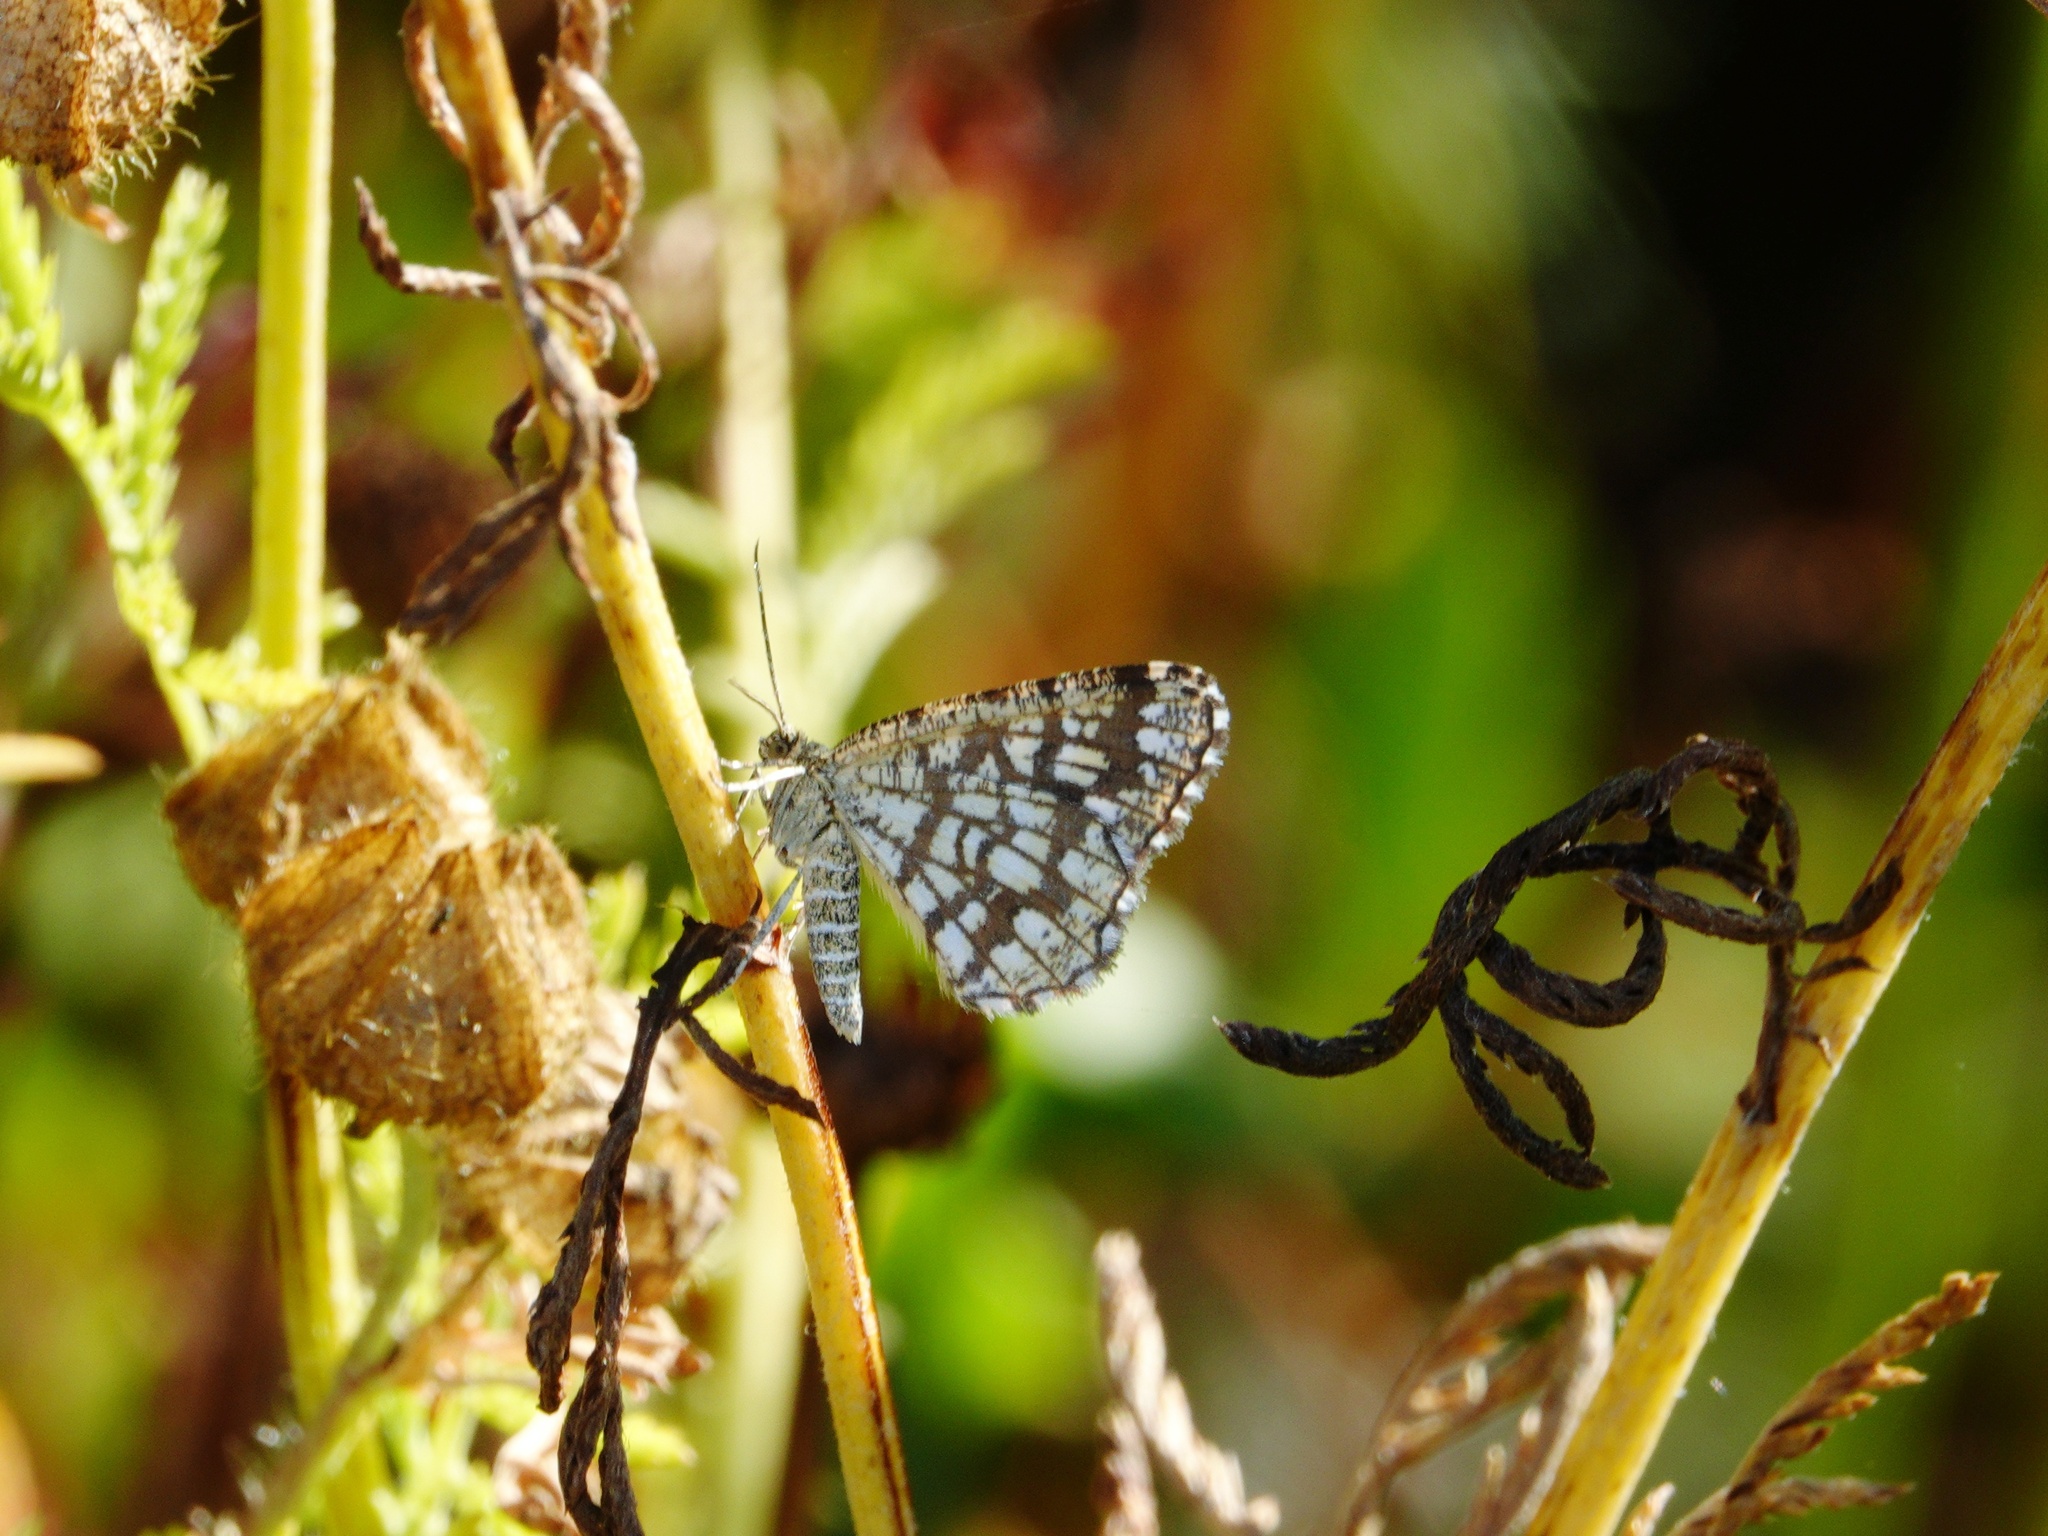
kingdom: Animalia
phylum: Arthropoda
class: Insecta
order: Lepidoptera
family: Geometridae
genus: Chiasmia
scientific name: Chiasmia clathrata
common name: Latticed heath
